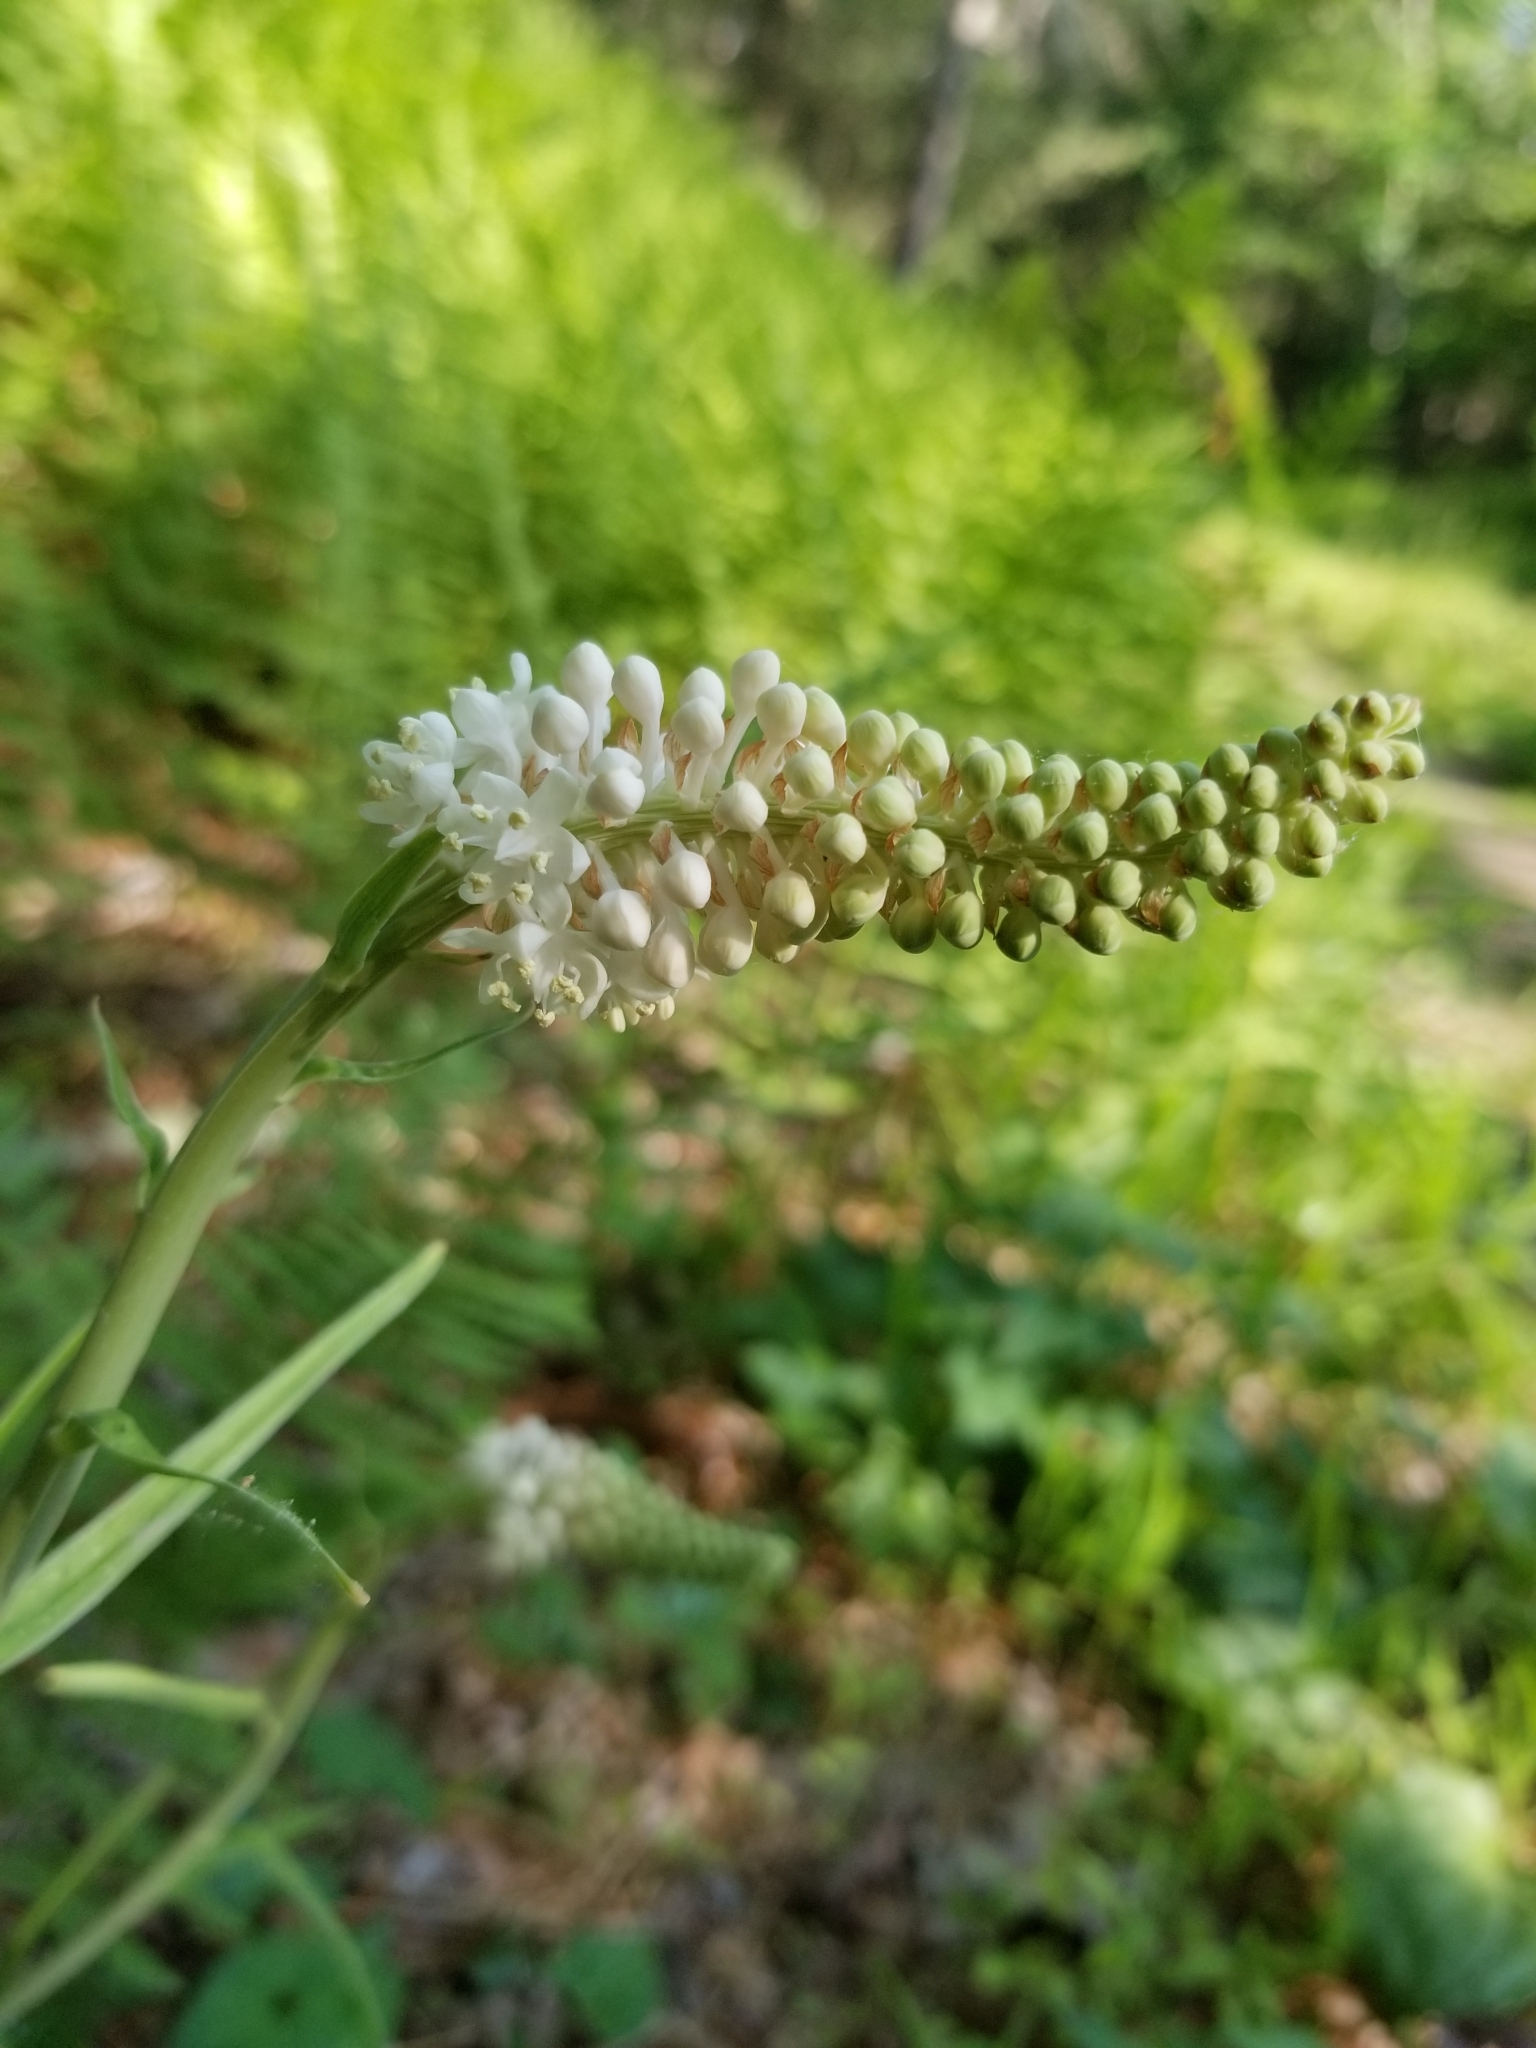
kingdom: Plantae
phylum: Tracheophyta
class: Liliopsida
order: Liliales
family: Melanthiaceae
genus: Amianthium
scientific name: Amianthium muscitoxicum
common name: Fly-poison
